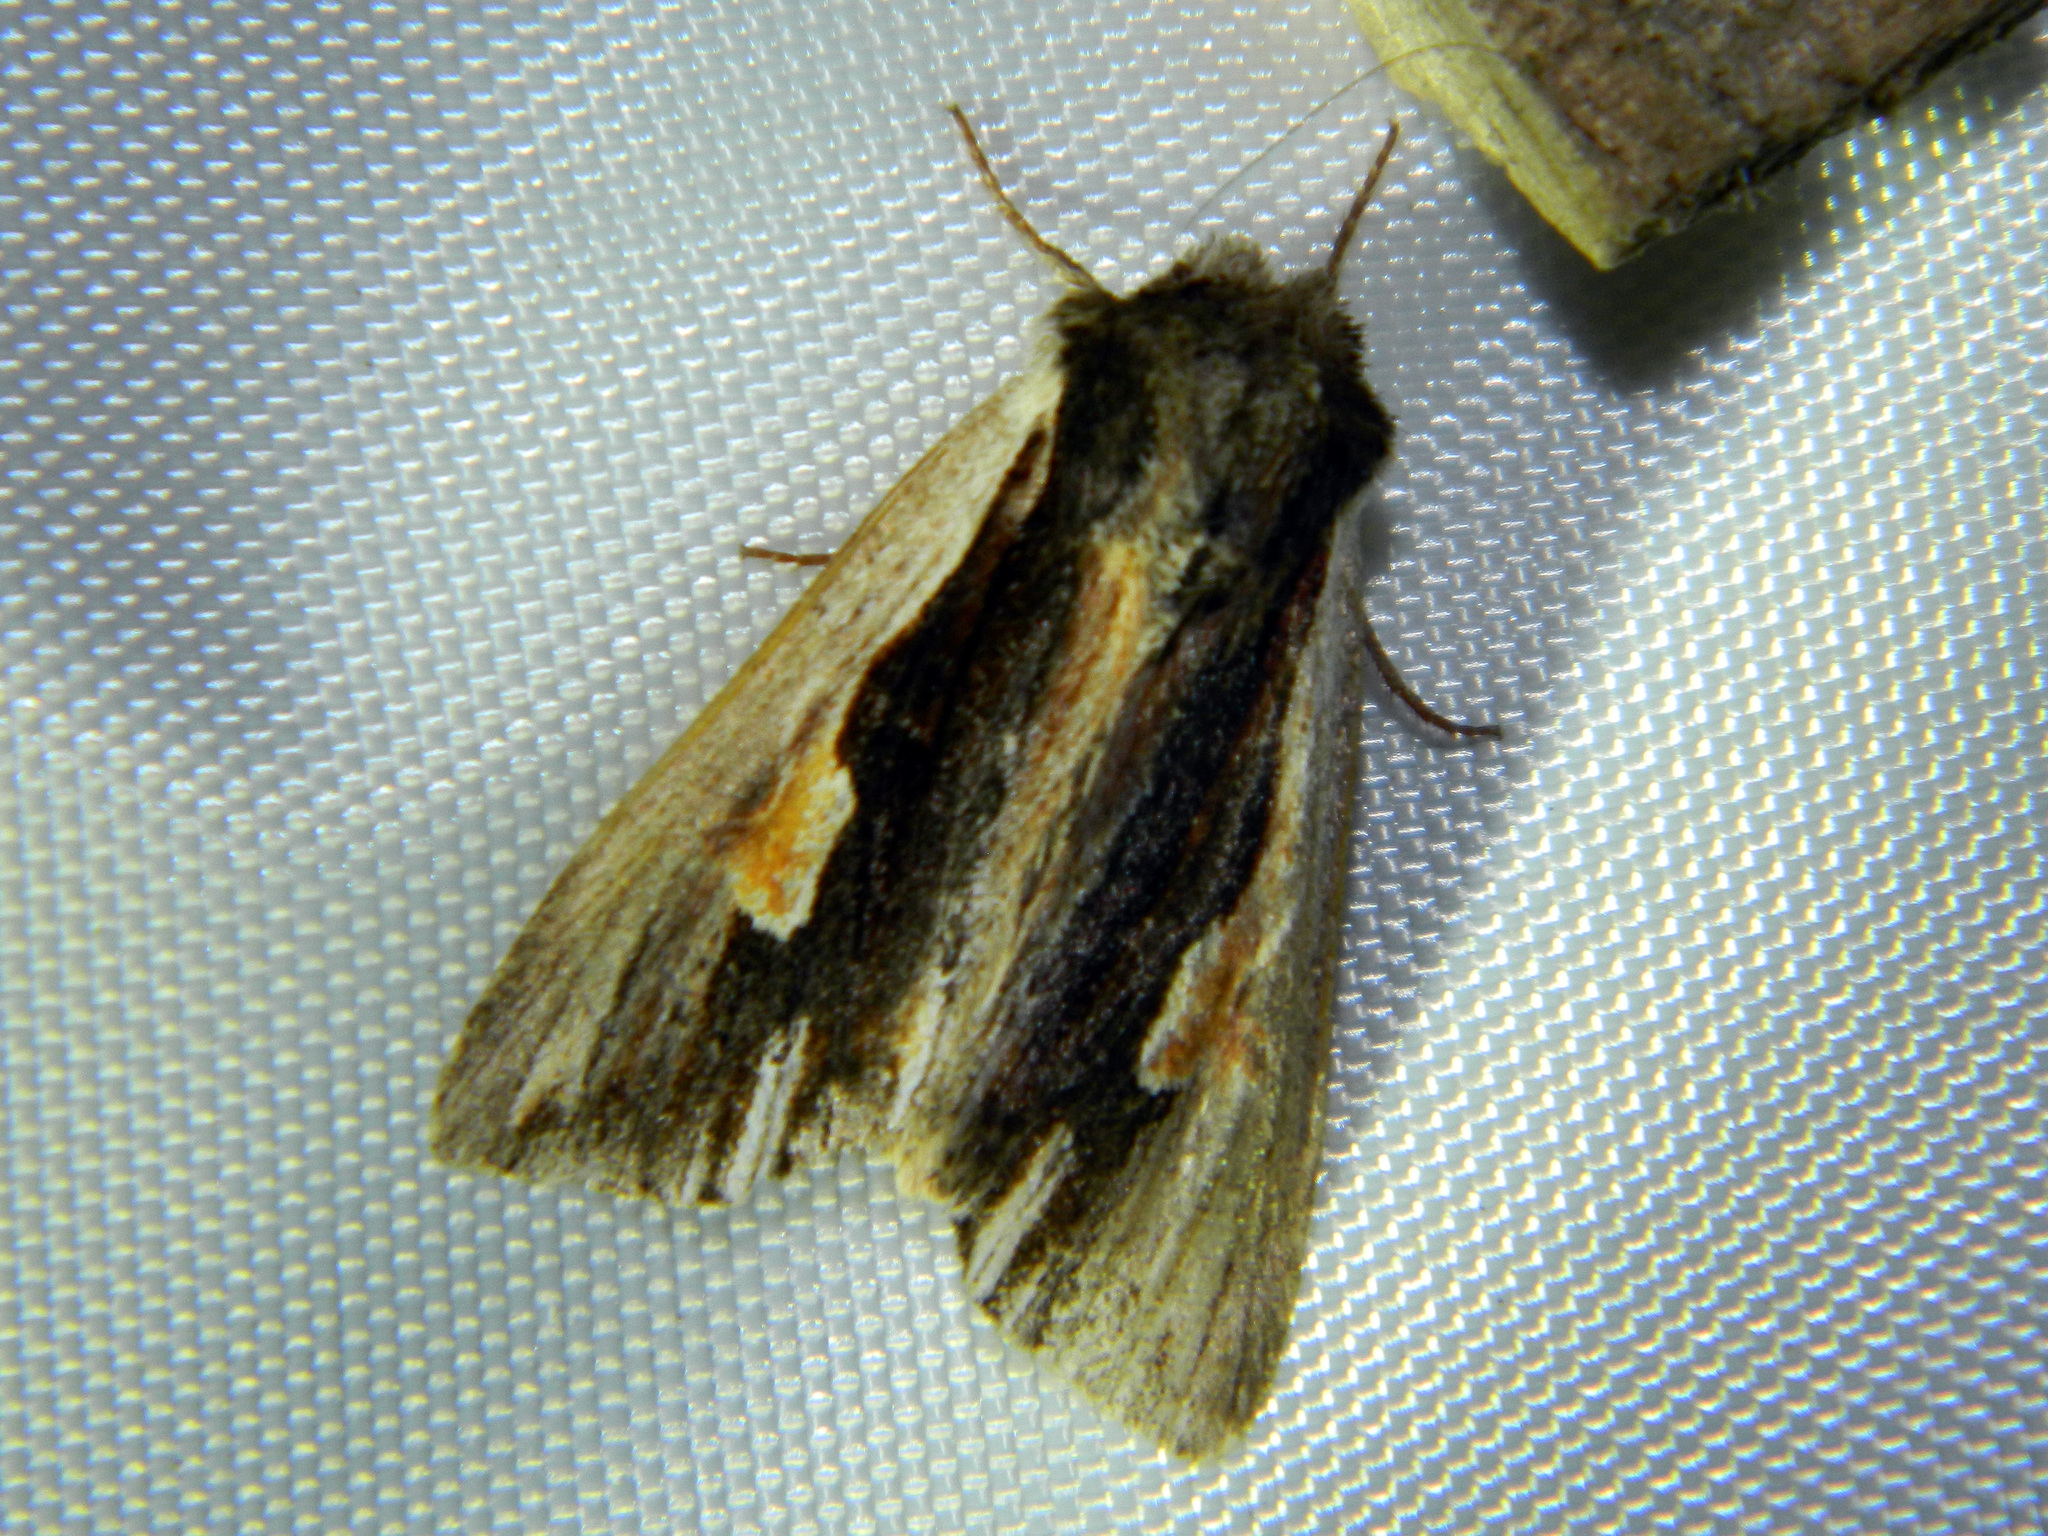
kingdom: Animalia
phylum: Arthropoda
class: Insecta
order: Lepidoptera
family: Noctuidae
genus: Achatia
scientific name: Achatia evicta
